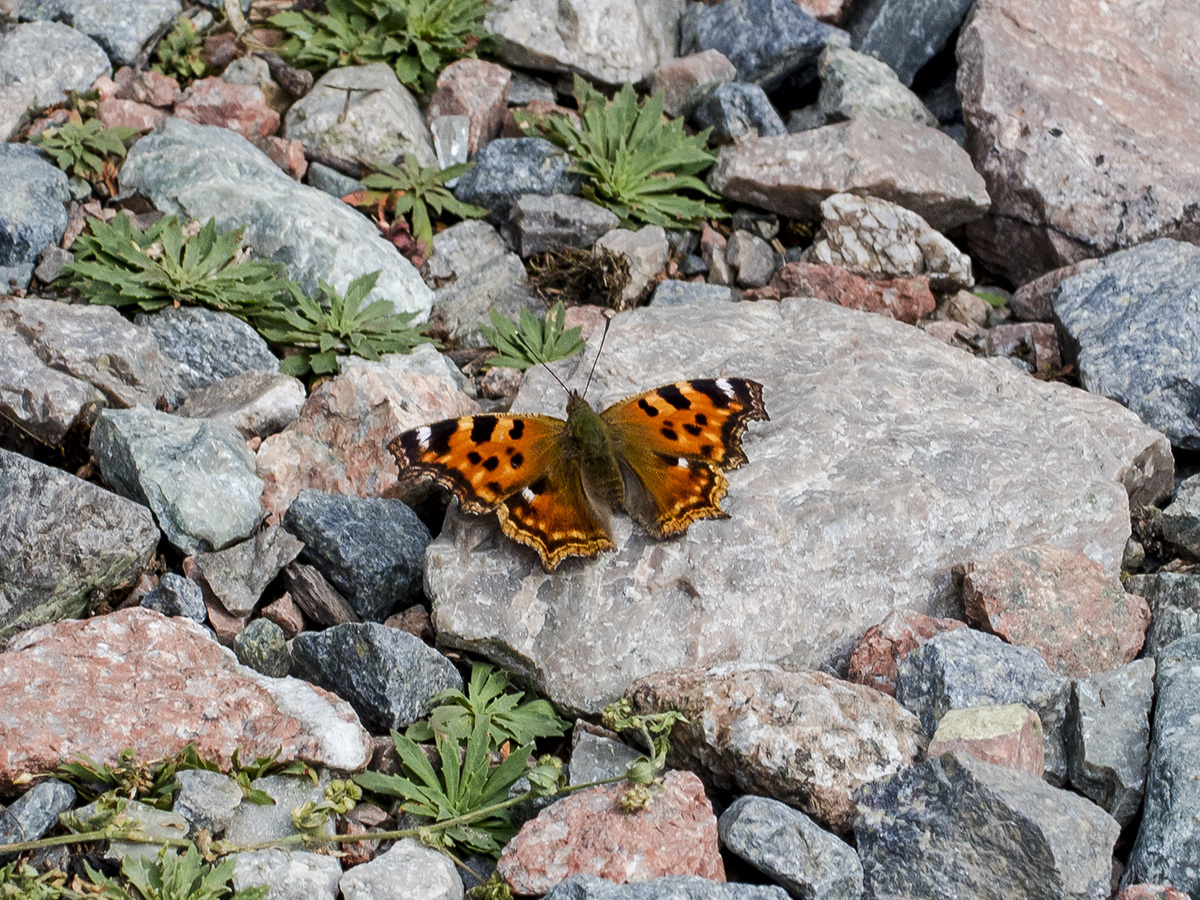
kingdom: Animalia
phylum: Arthropoda
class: Insecta
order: Lepidoptera
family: Nymphalidae
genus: Polygonia
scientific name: Polygonia vaualbum
